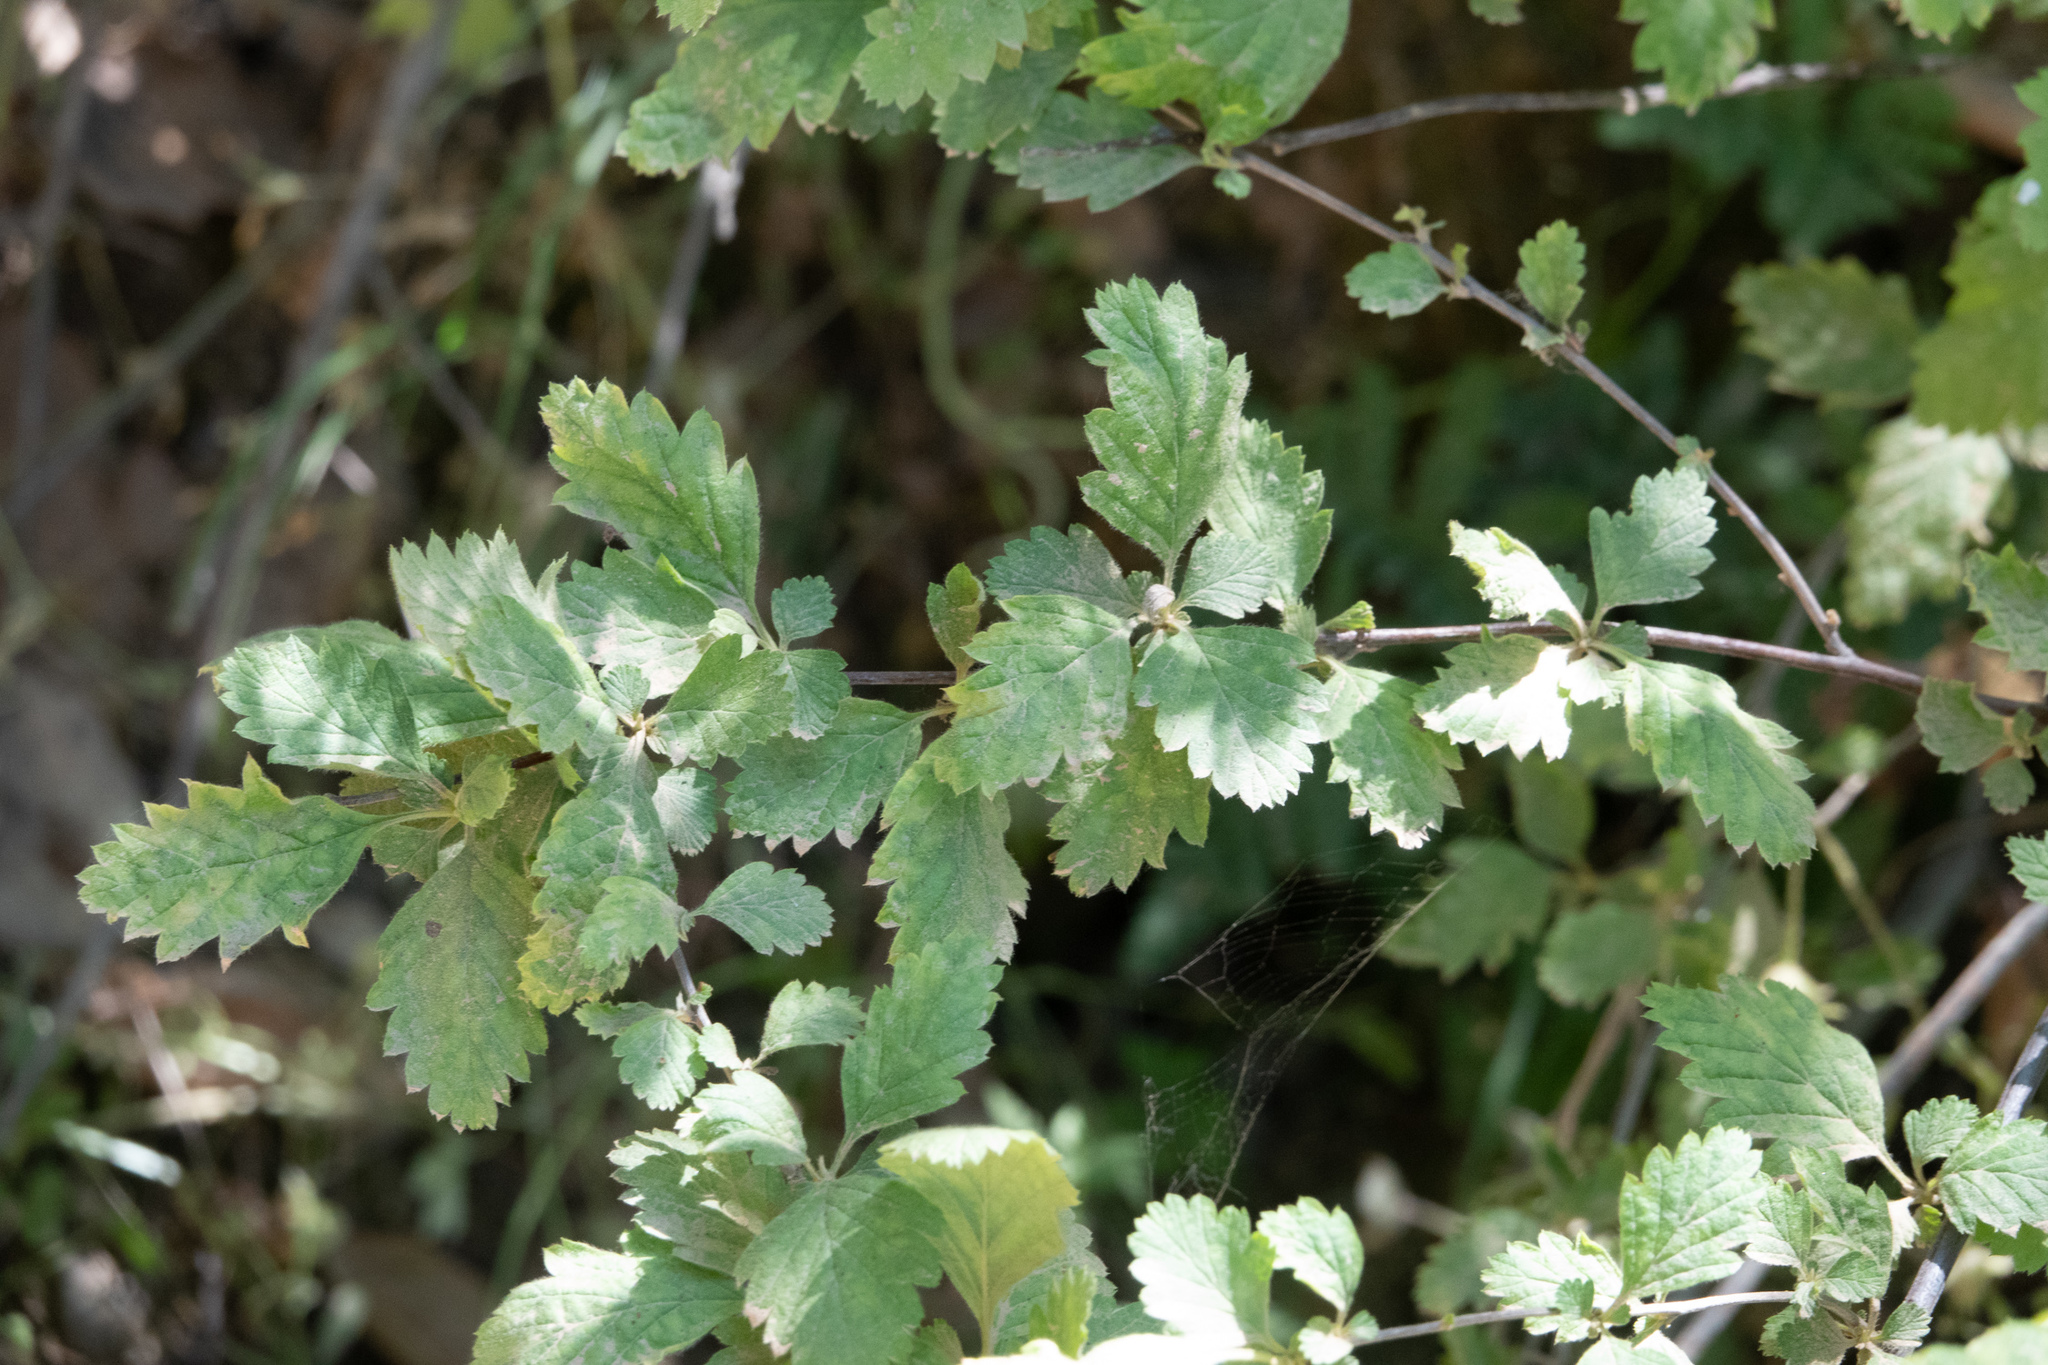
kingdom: Plantae
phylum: Tracheophyta
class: Magnoliopsida
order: Rosales
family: Rosaceae
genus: Holodiscus
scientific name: Holodiscus discolor
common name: Oceanspray
